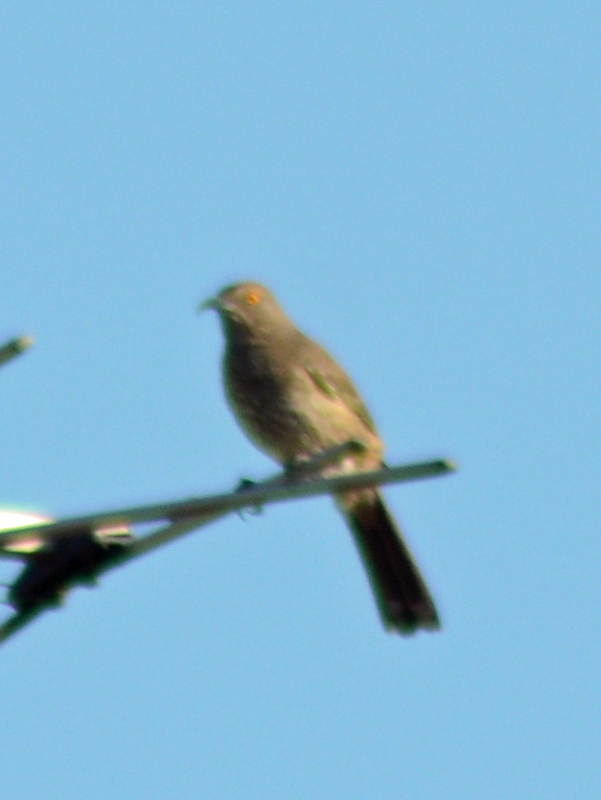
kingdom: Animalia
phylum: Chordata
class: Aves
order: Passeriformes
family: Mimidae
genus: Toxostoma
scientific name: Toxostoma curvirostre
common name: Curve-billed thrasher
